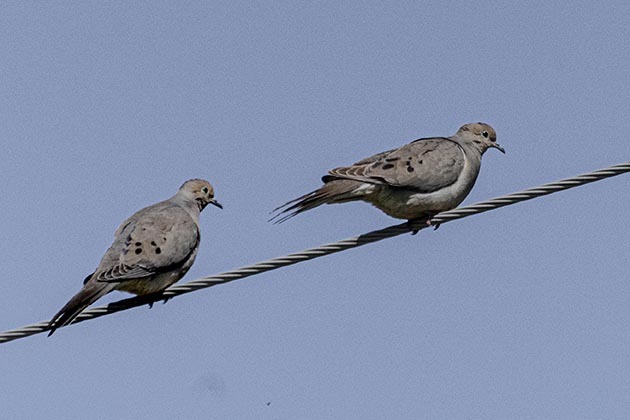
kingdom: Animalia
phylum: Chordata
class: Aves
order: Columbiformes
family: Columbidae
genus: Zenaida
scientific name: Zenaida macroura
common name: Mourning dove
